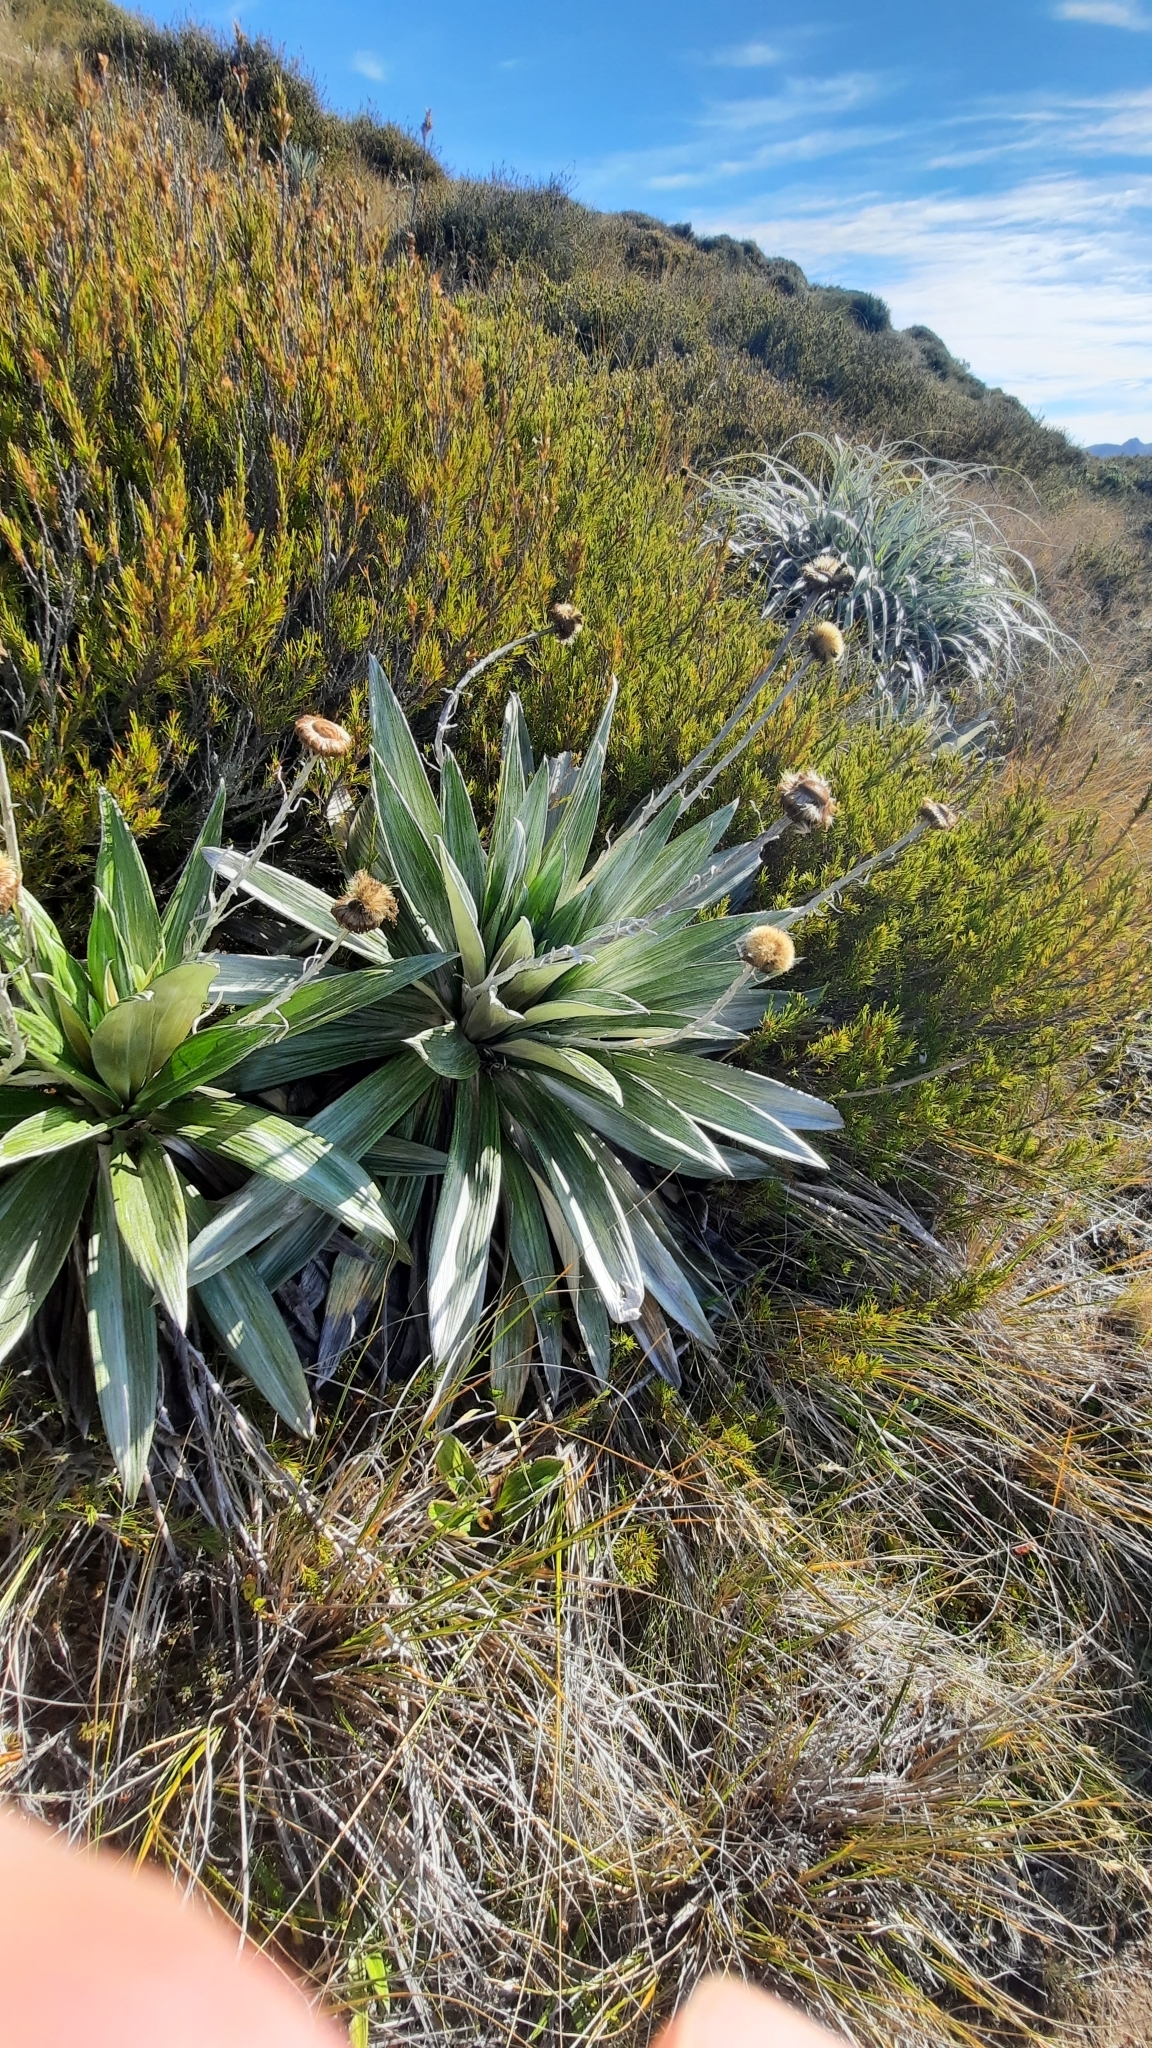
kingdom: Plantae
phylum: Tracheophyta
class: Magnoliopsida
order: Asterales
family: Asteraceae
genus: Celmisia
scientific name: Celmisia semicordata
